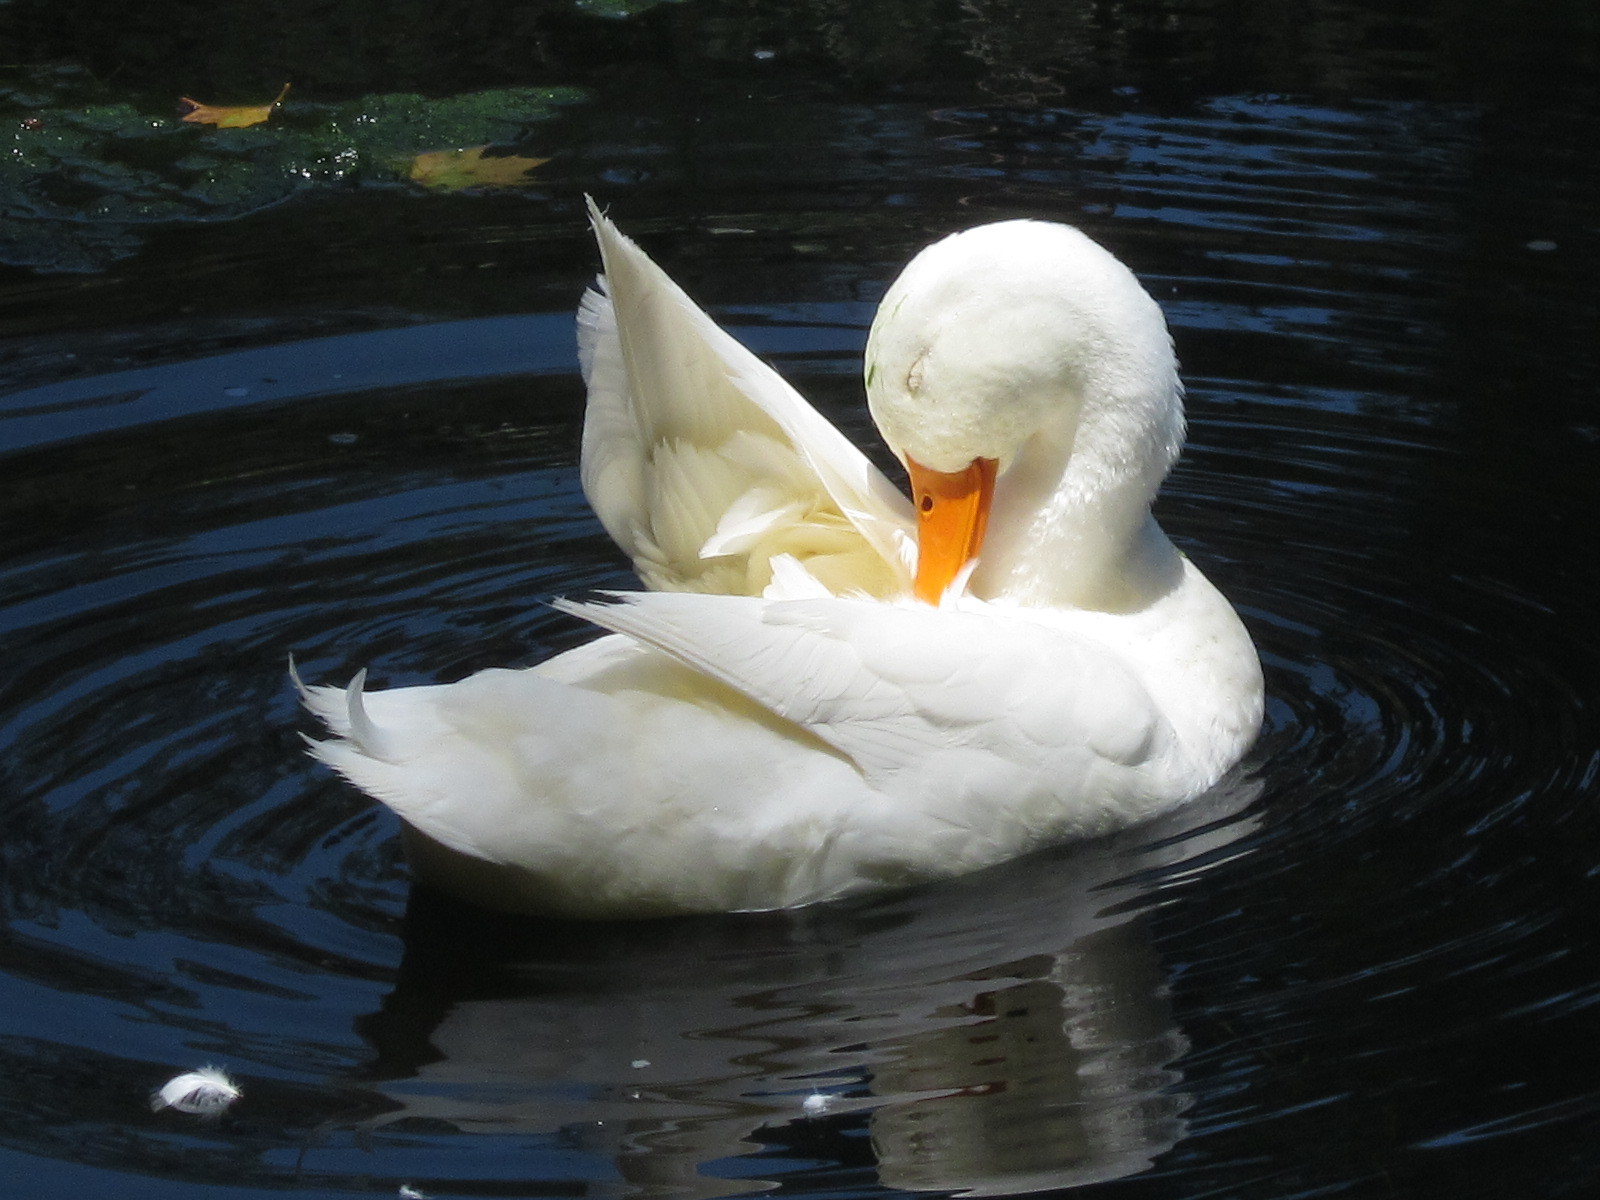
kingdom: Animalia
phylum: Chordata
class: Aves
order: Anseriformes
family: Anatidae
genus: Anas
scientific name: Anas platyrhynchos
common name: Mallard
